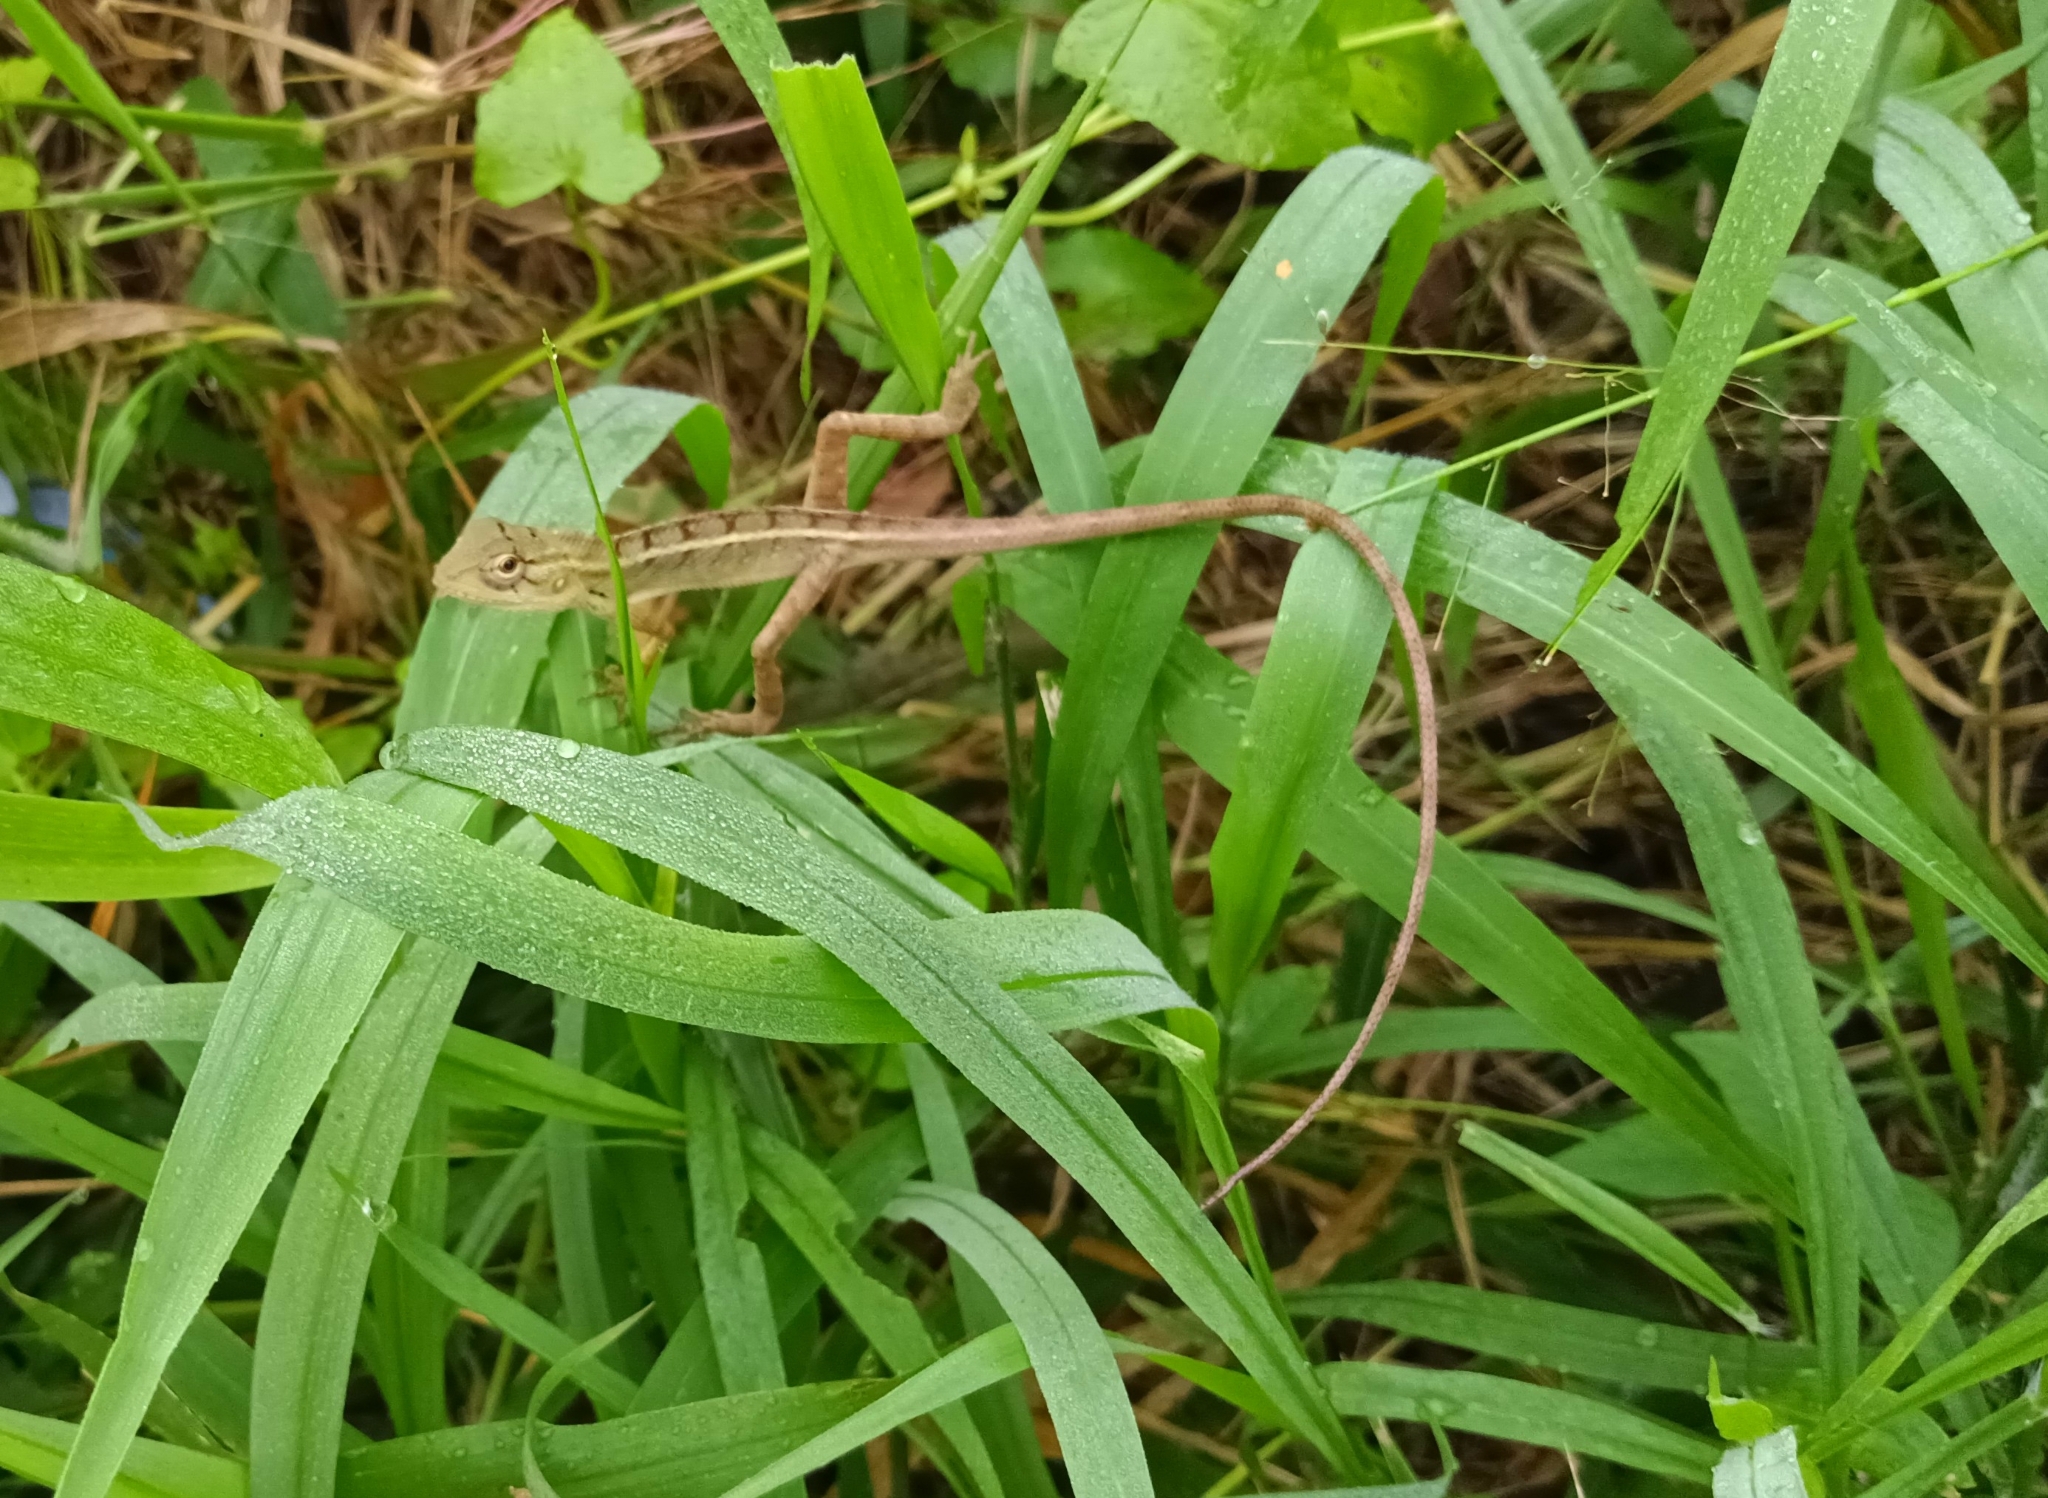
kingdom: Animalia
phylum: Chordata
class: Squamata
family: Agamidae
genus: Calotes
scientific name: Calotes versicolor
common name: Oriental garden lizard
